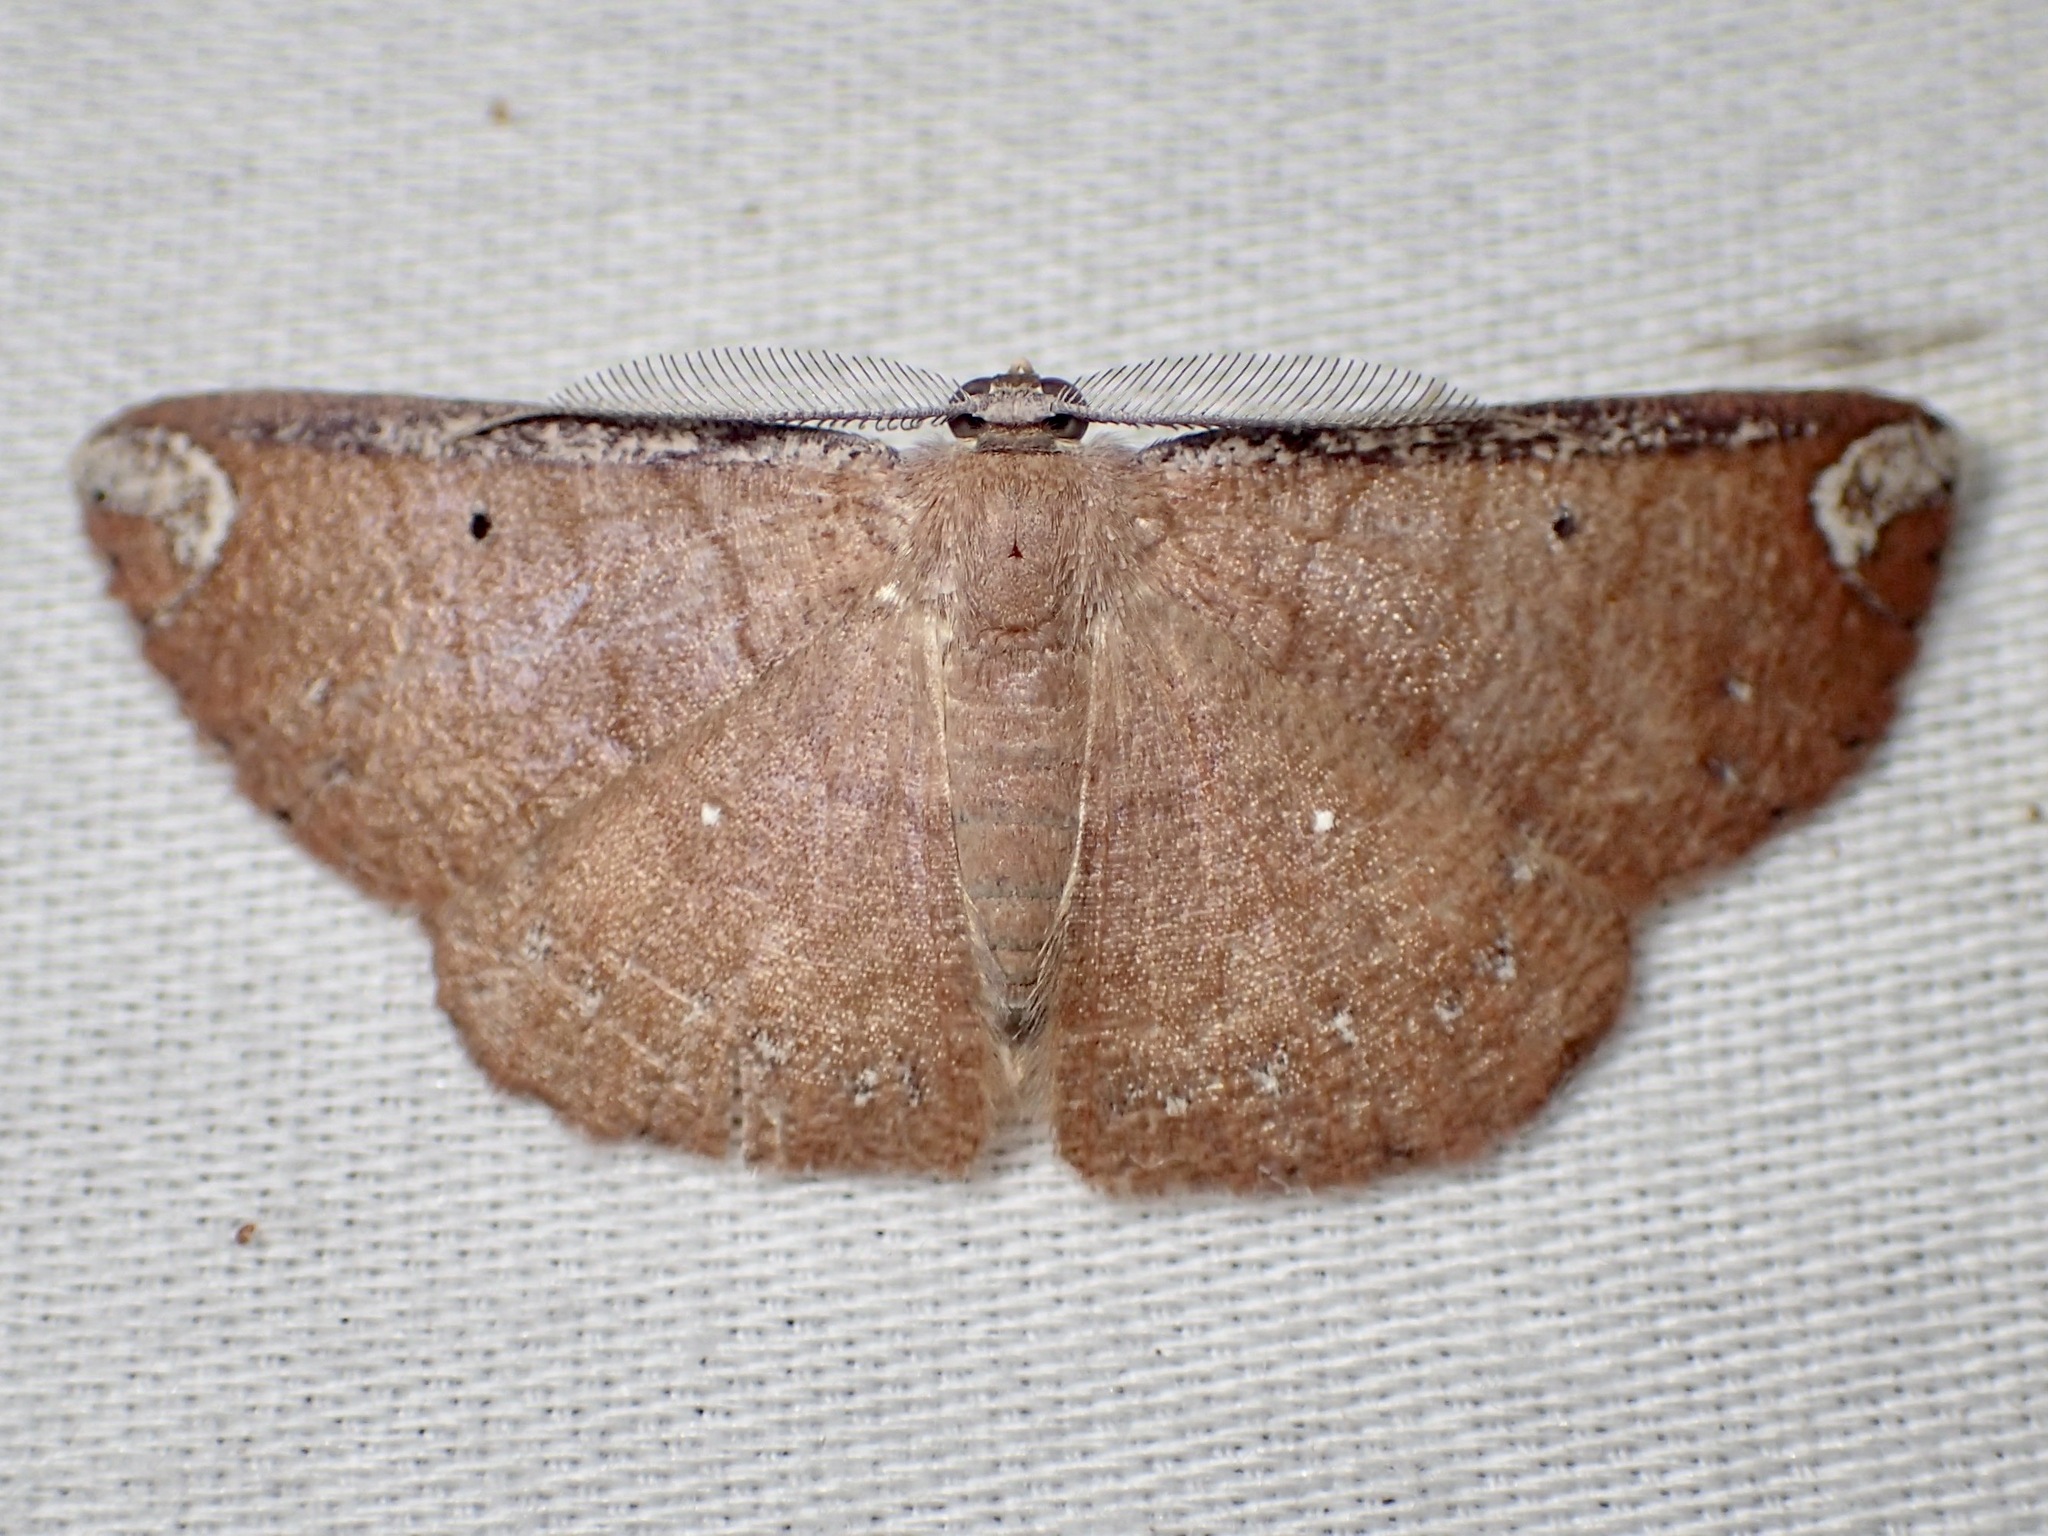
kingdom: Animalia
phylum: Arthropoda
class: Insecta
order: Lepidoptera
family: Geometridae
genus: Casbia
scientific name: Casbia albinotata
